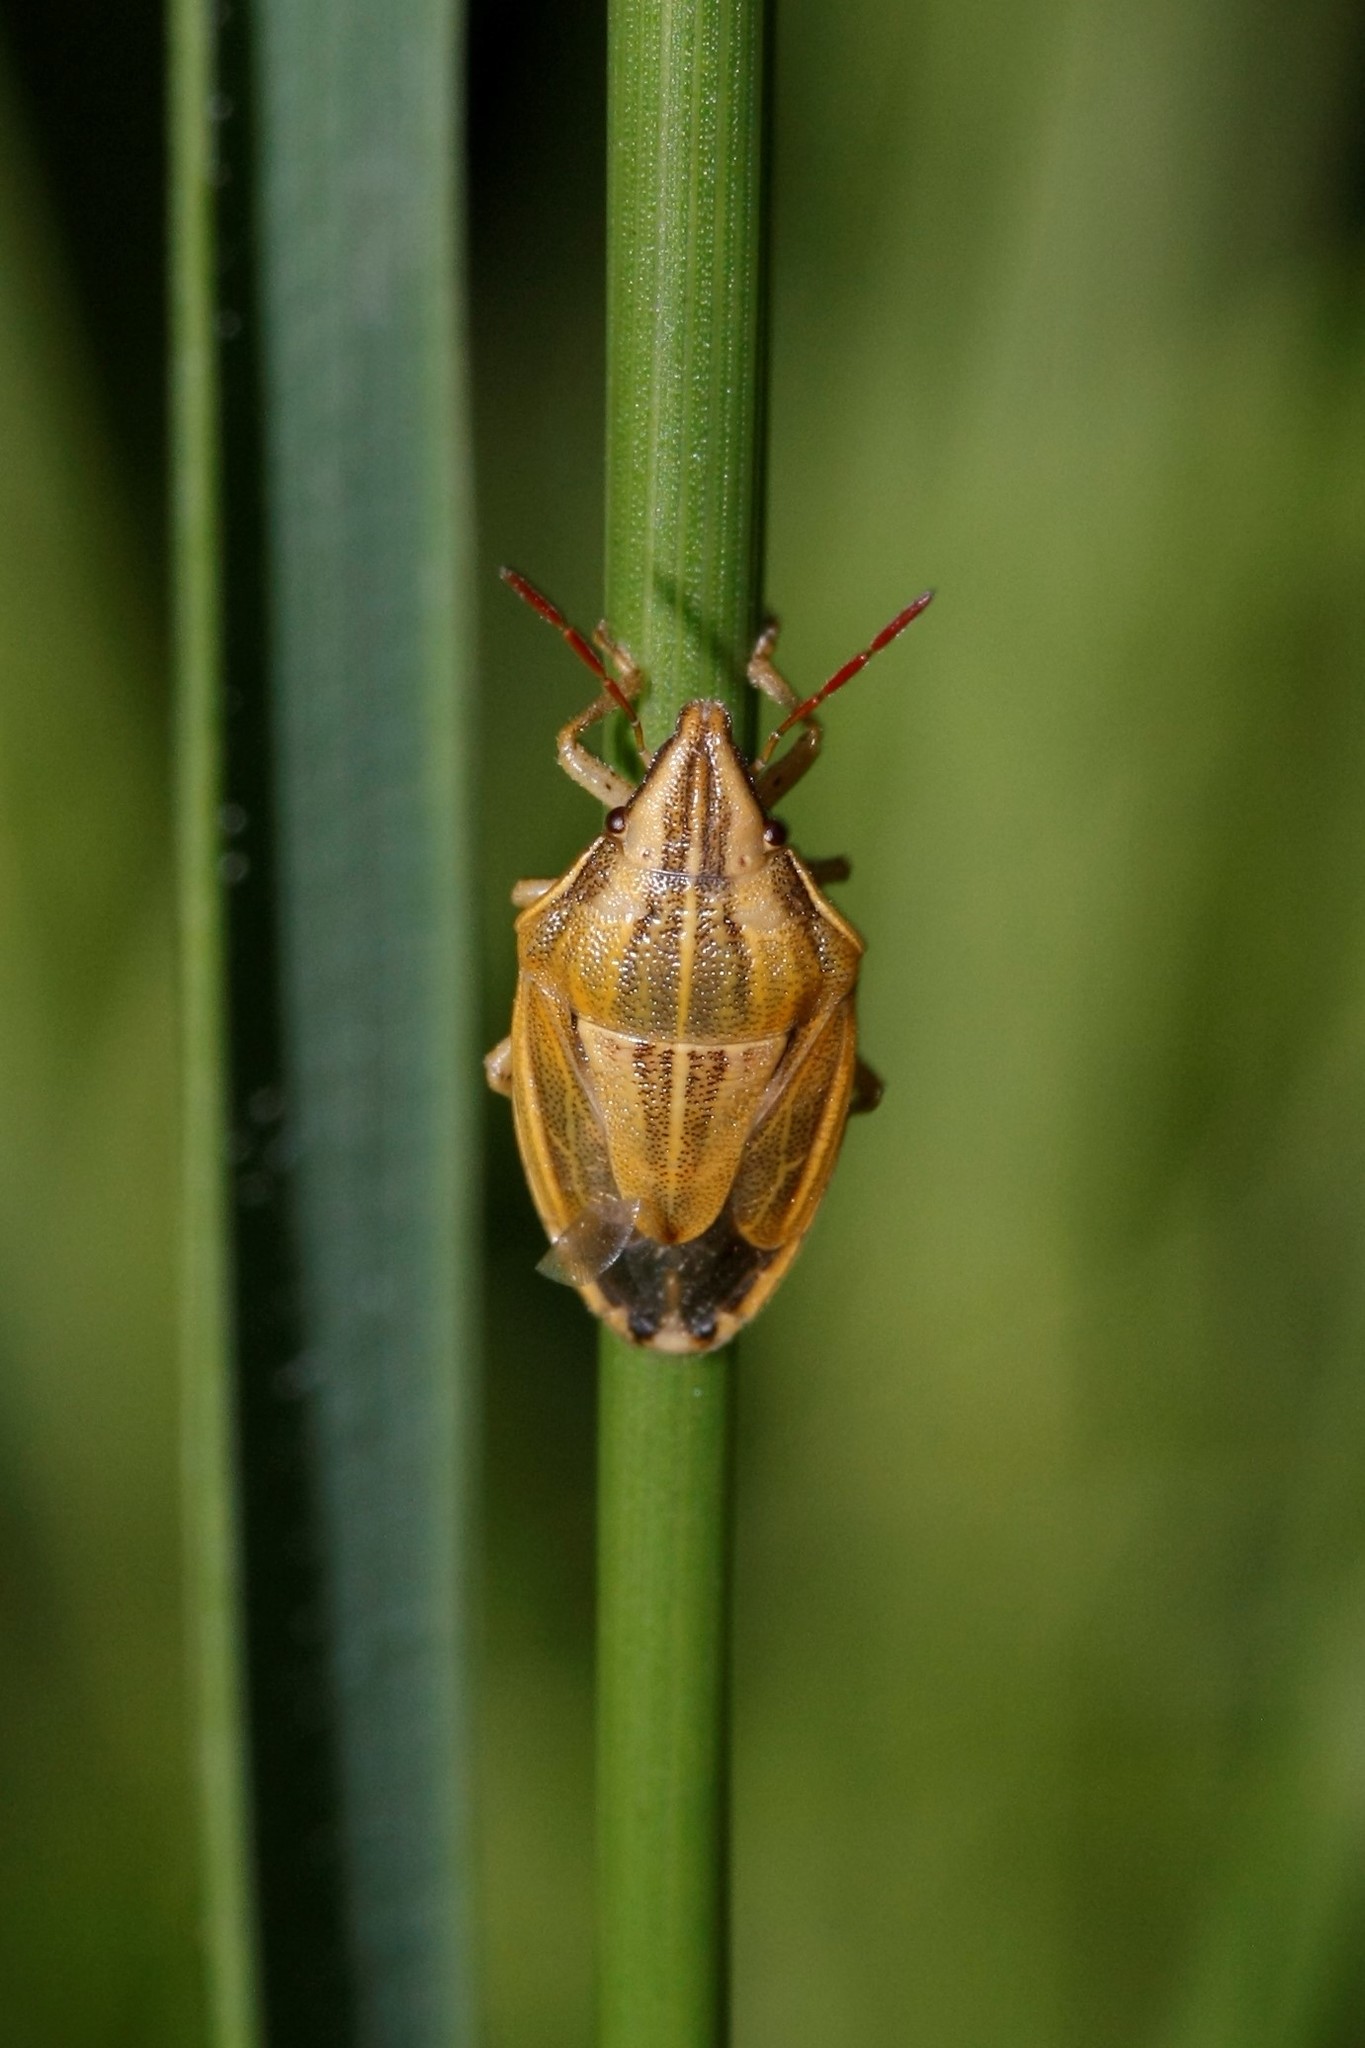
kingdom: Animalia
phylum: Arthropoda
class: Insecta
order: Hemiptera
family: Pentatomidae
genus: Aelia
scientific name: Aelia acuminata
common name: Bishop's mitre
